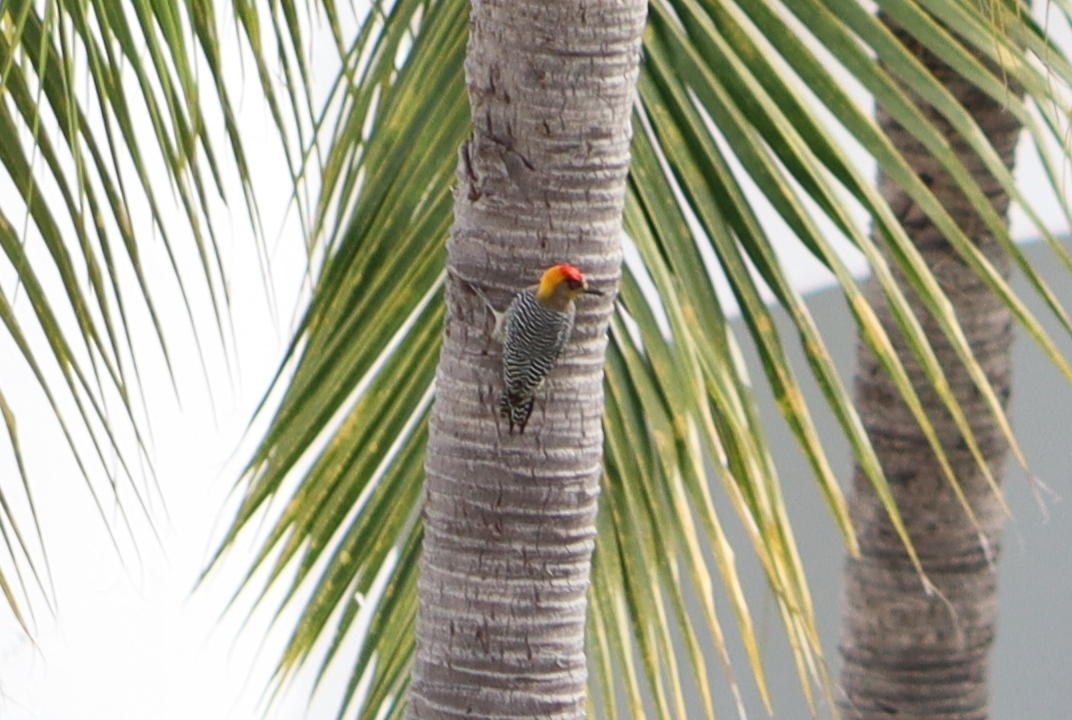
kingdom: Animalia
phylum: Chordata
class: Aves
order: Piciformes
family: Picidae
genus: Melanerpes
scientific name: Melanerpes chrysogenys
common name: Golden-cheeked woodpecker
